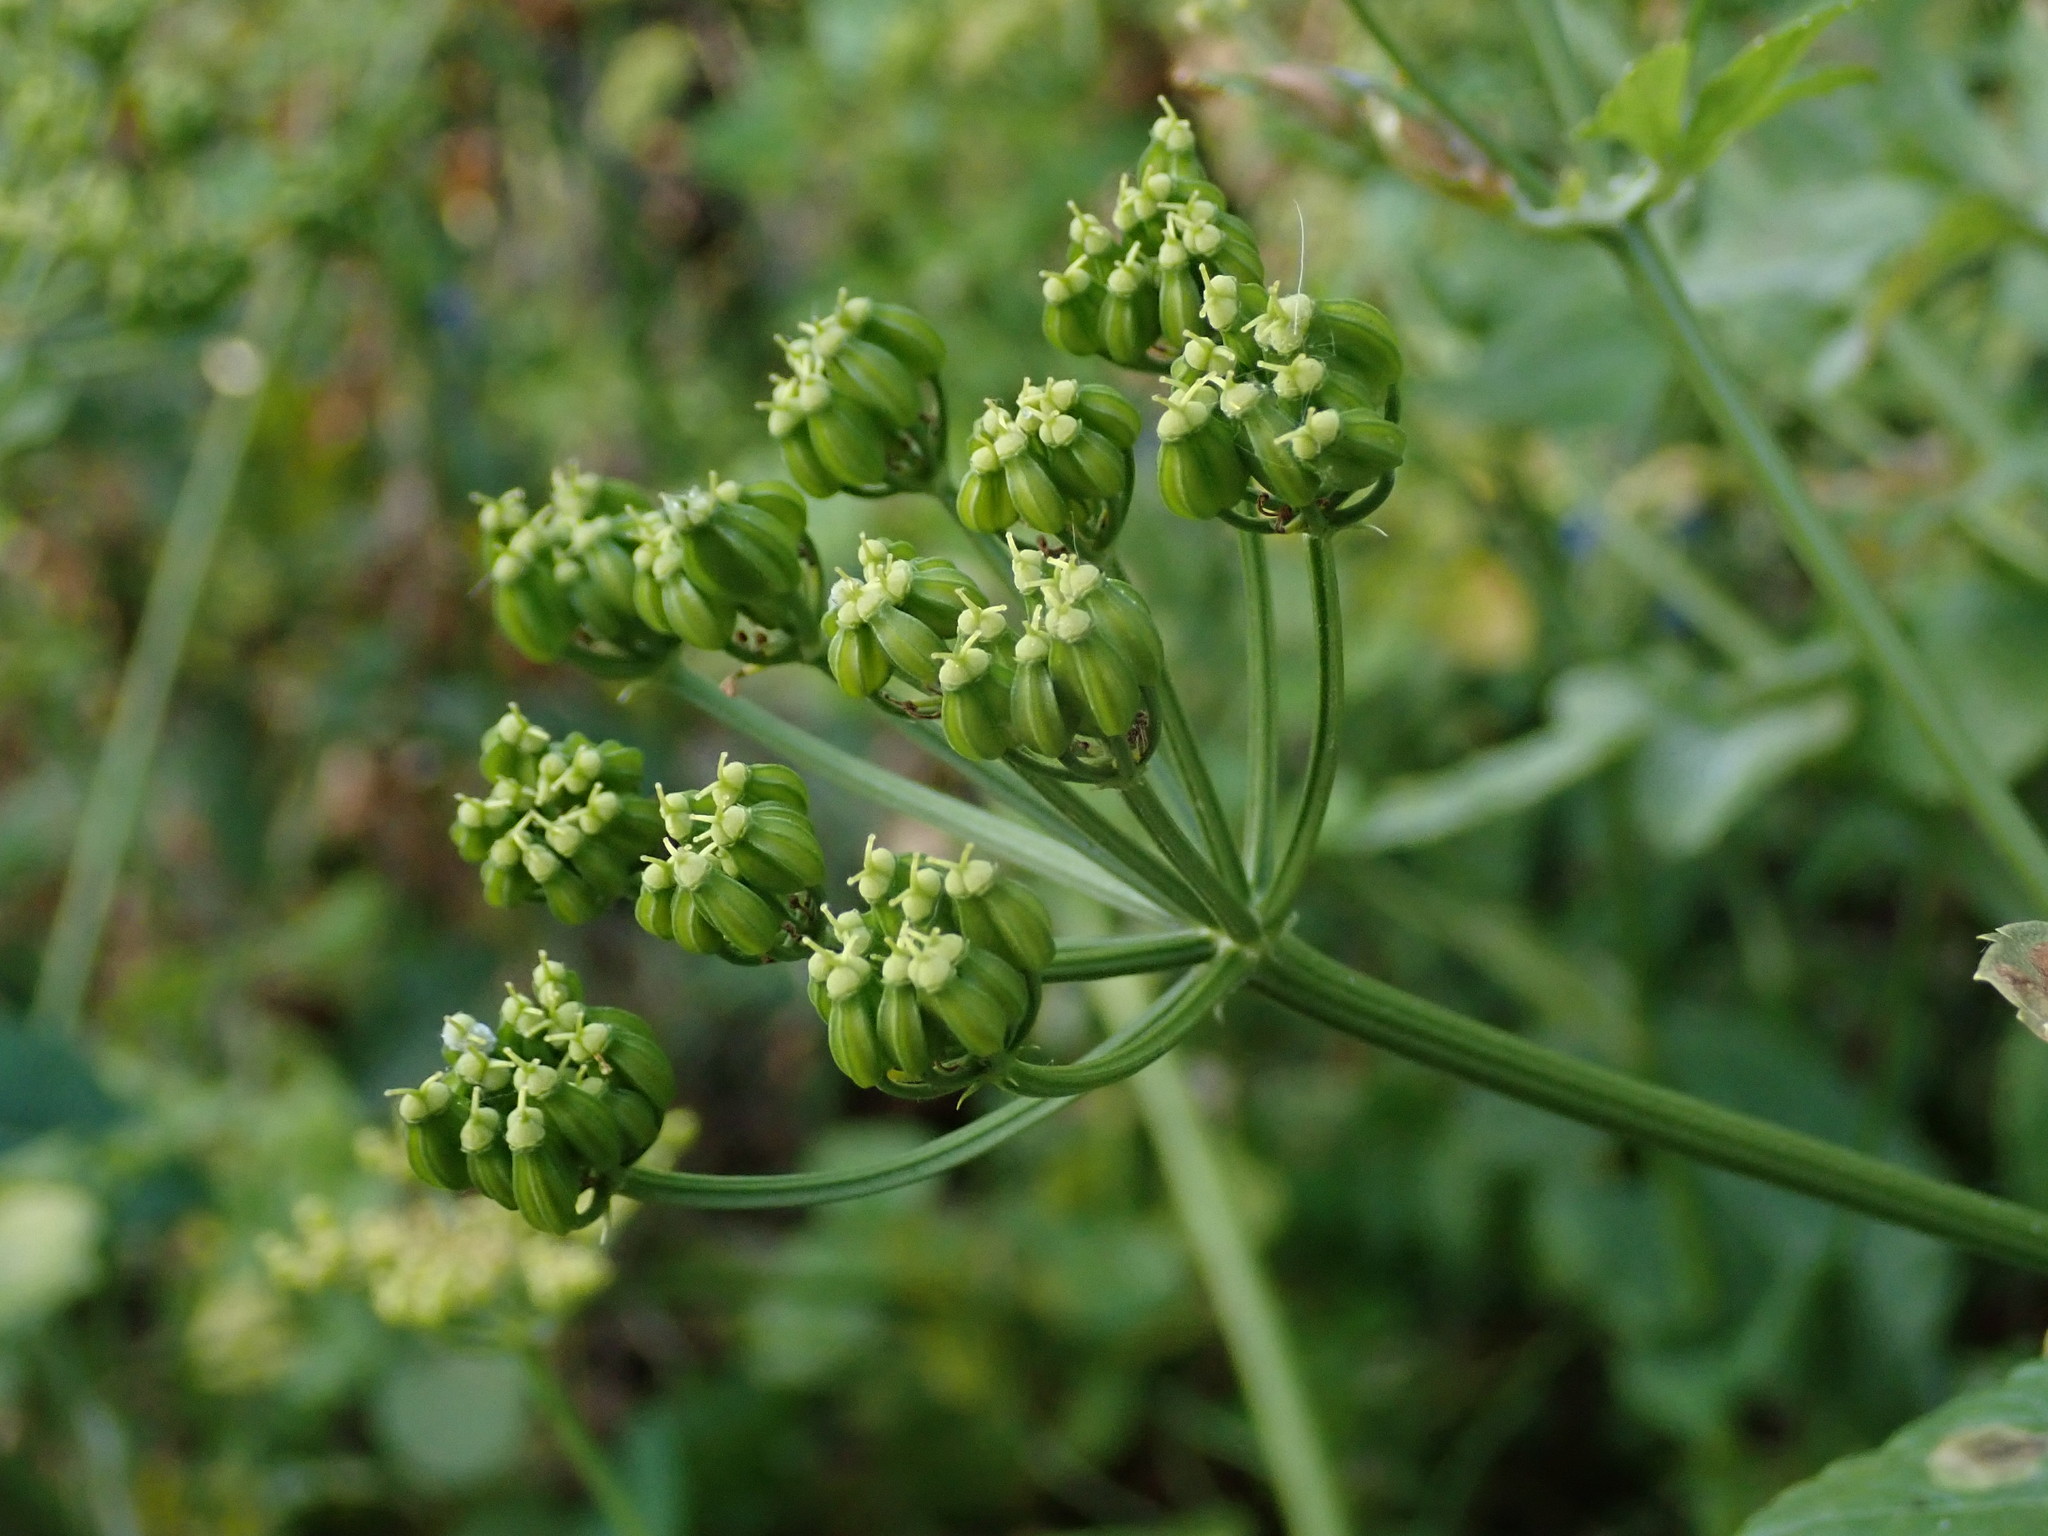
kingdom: Plantae
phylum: Tracheophyta
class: Magnoliopsida
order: Apiales
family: Apiaceae
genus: Smyrnium
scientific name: Smyrnium olusatrum
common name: Alexanders
